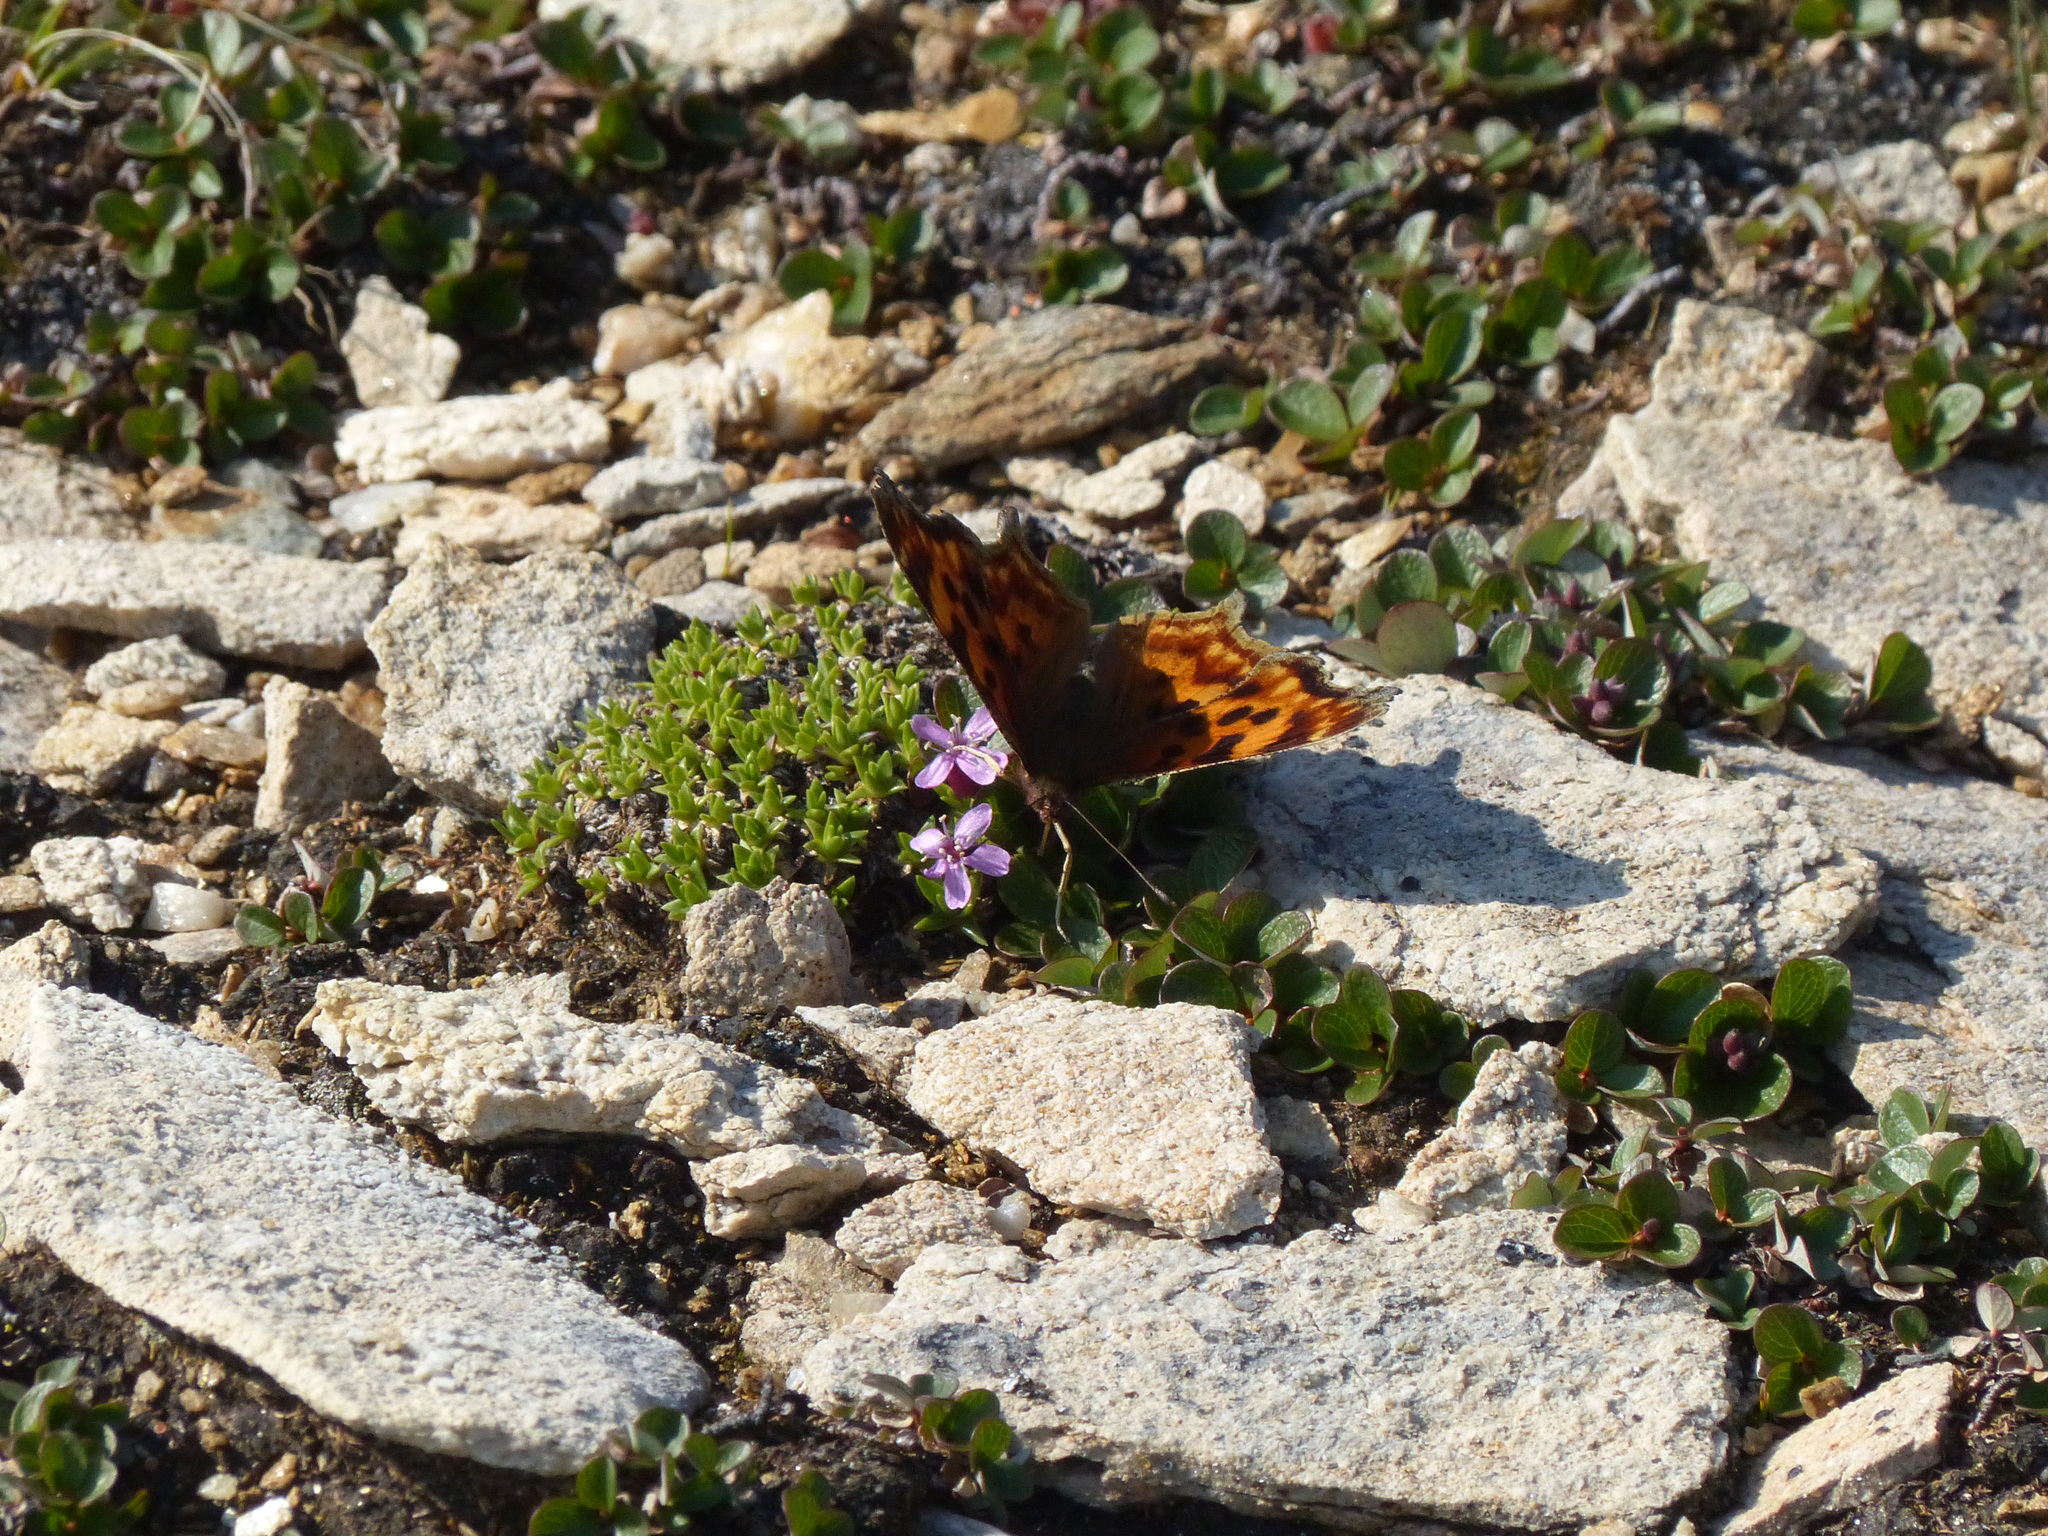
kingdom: Plantae
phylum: Tracheophyta
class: Magnoliopsida
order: Caryophyllales
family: Caryophyllaceae
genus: Silene
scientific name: Silene acaulis
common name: Moss campion
